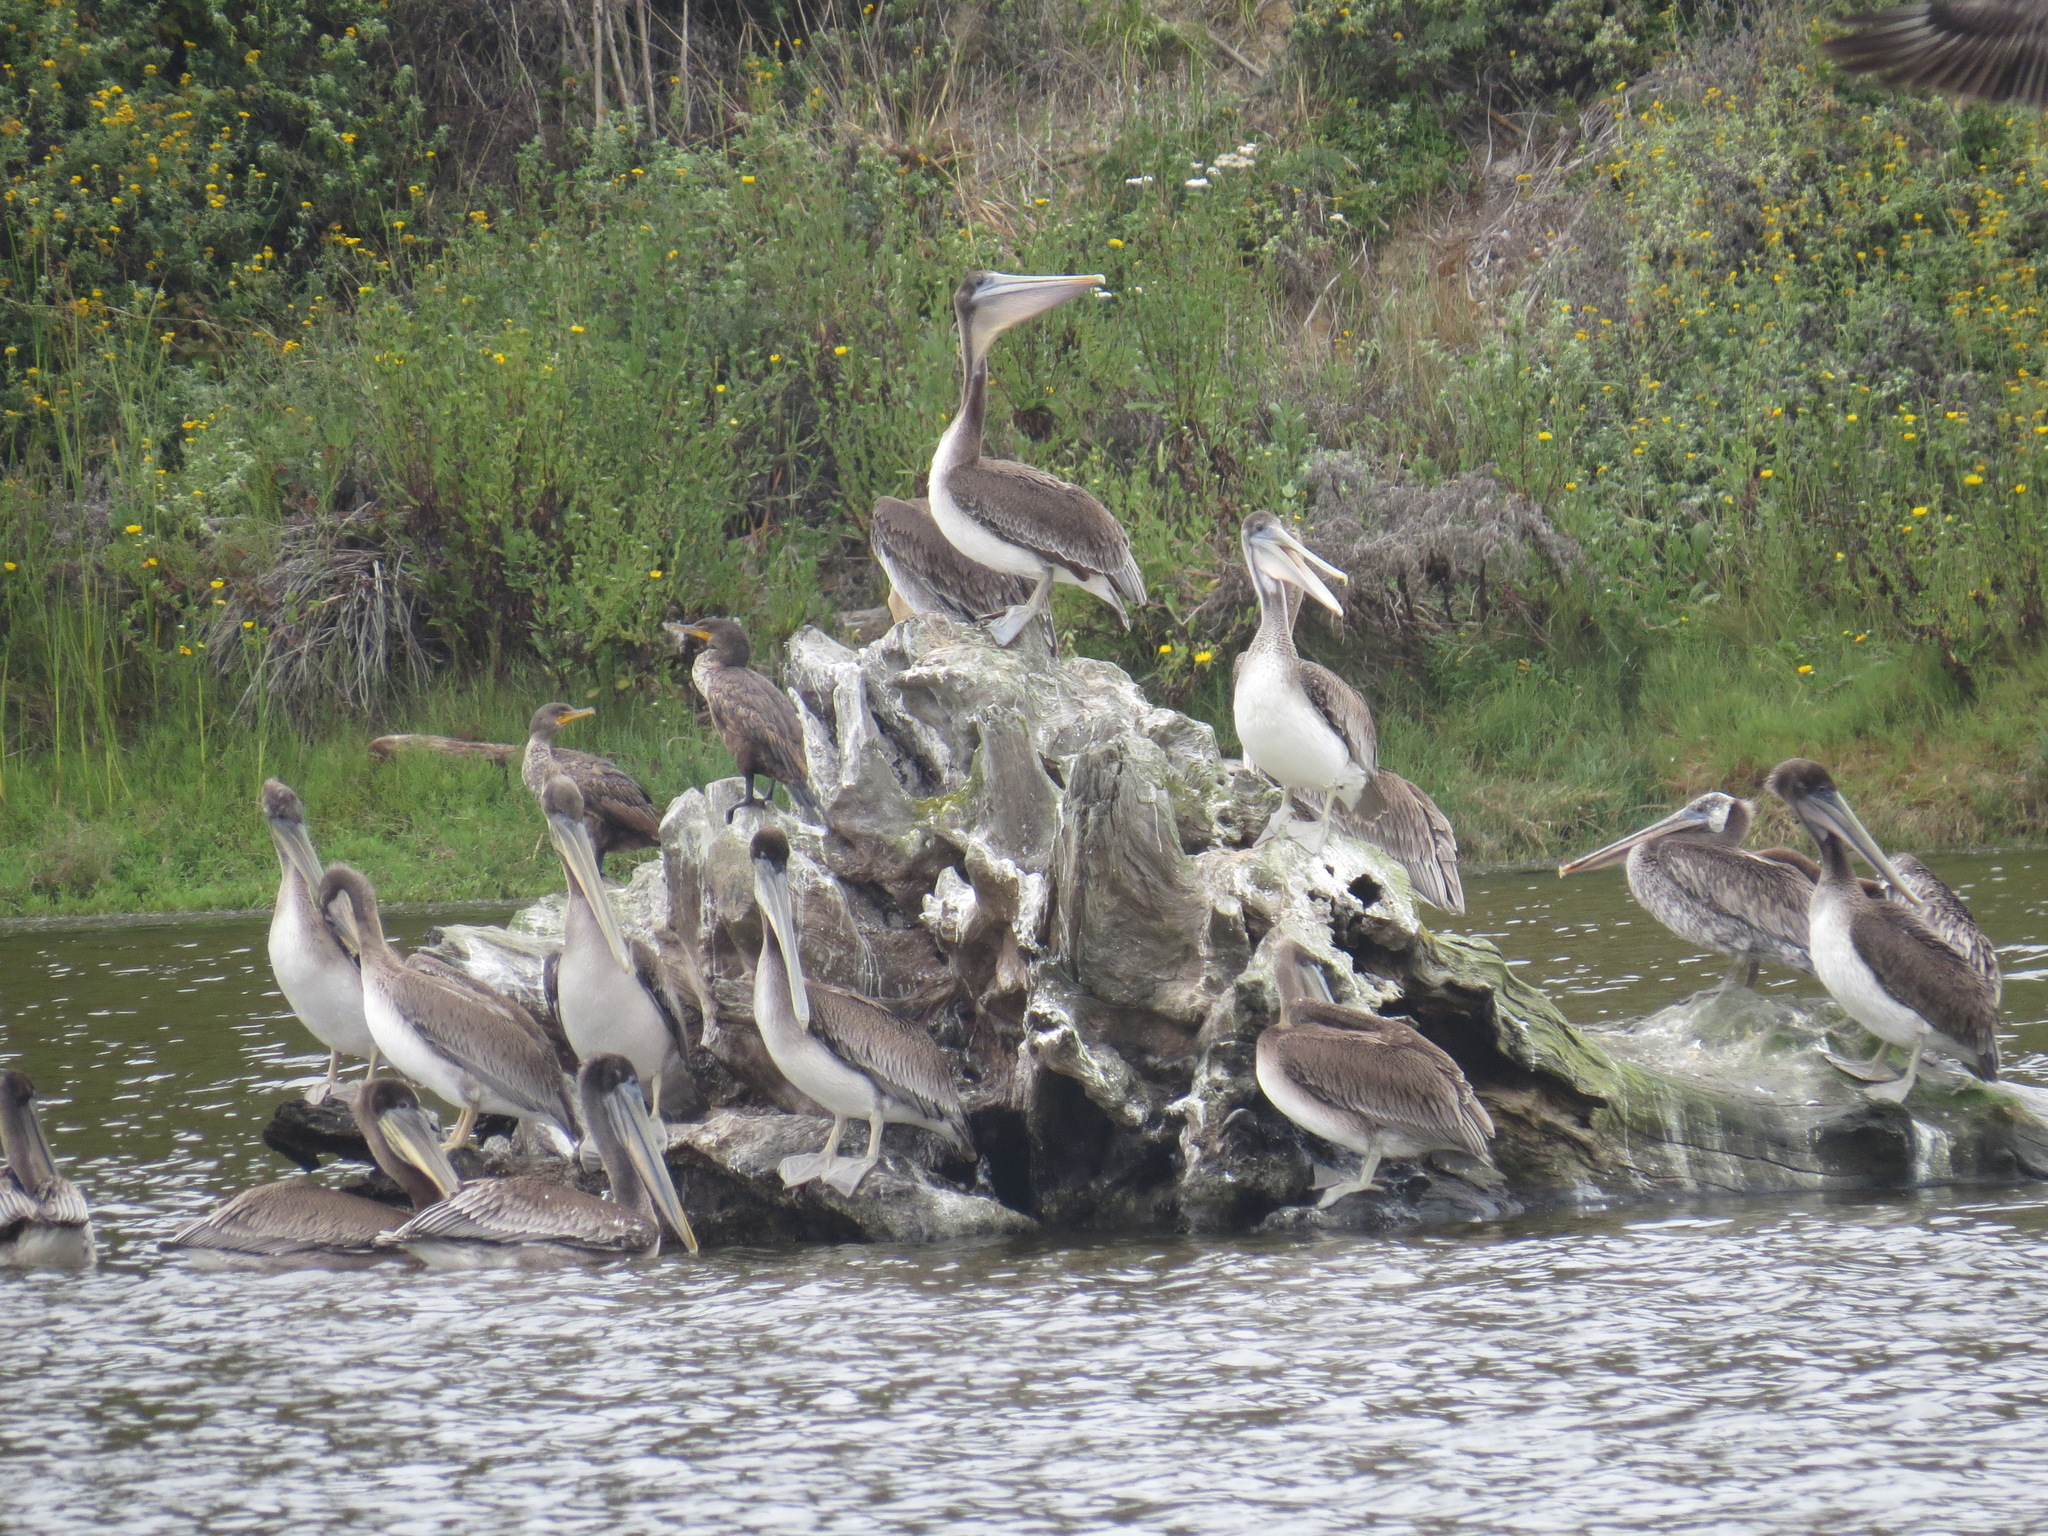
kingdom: Animalia
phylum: Chordata
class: Aves
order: Pelecaniformes
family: Pelecanidae
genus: Pelecanus
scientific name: Pelecanus occidentalis
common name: Brown pelican
